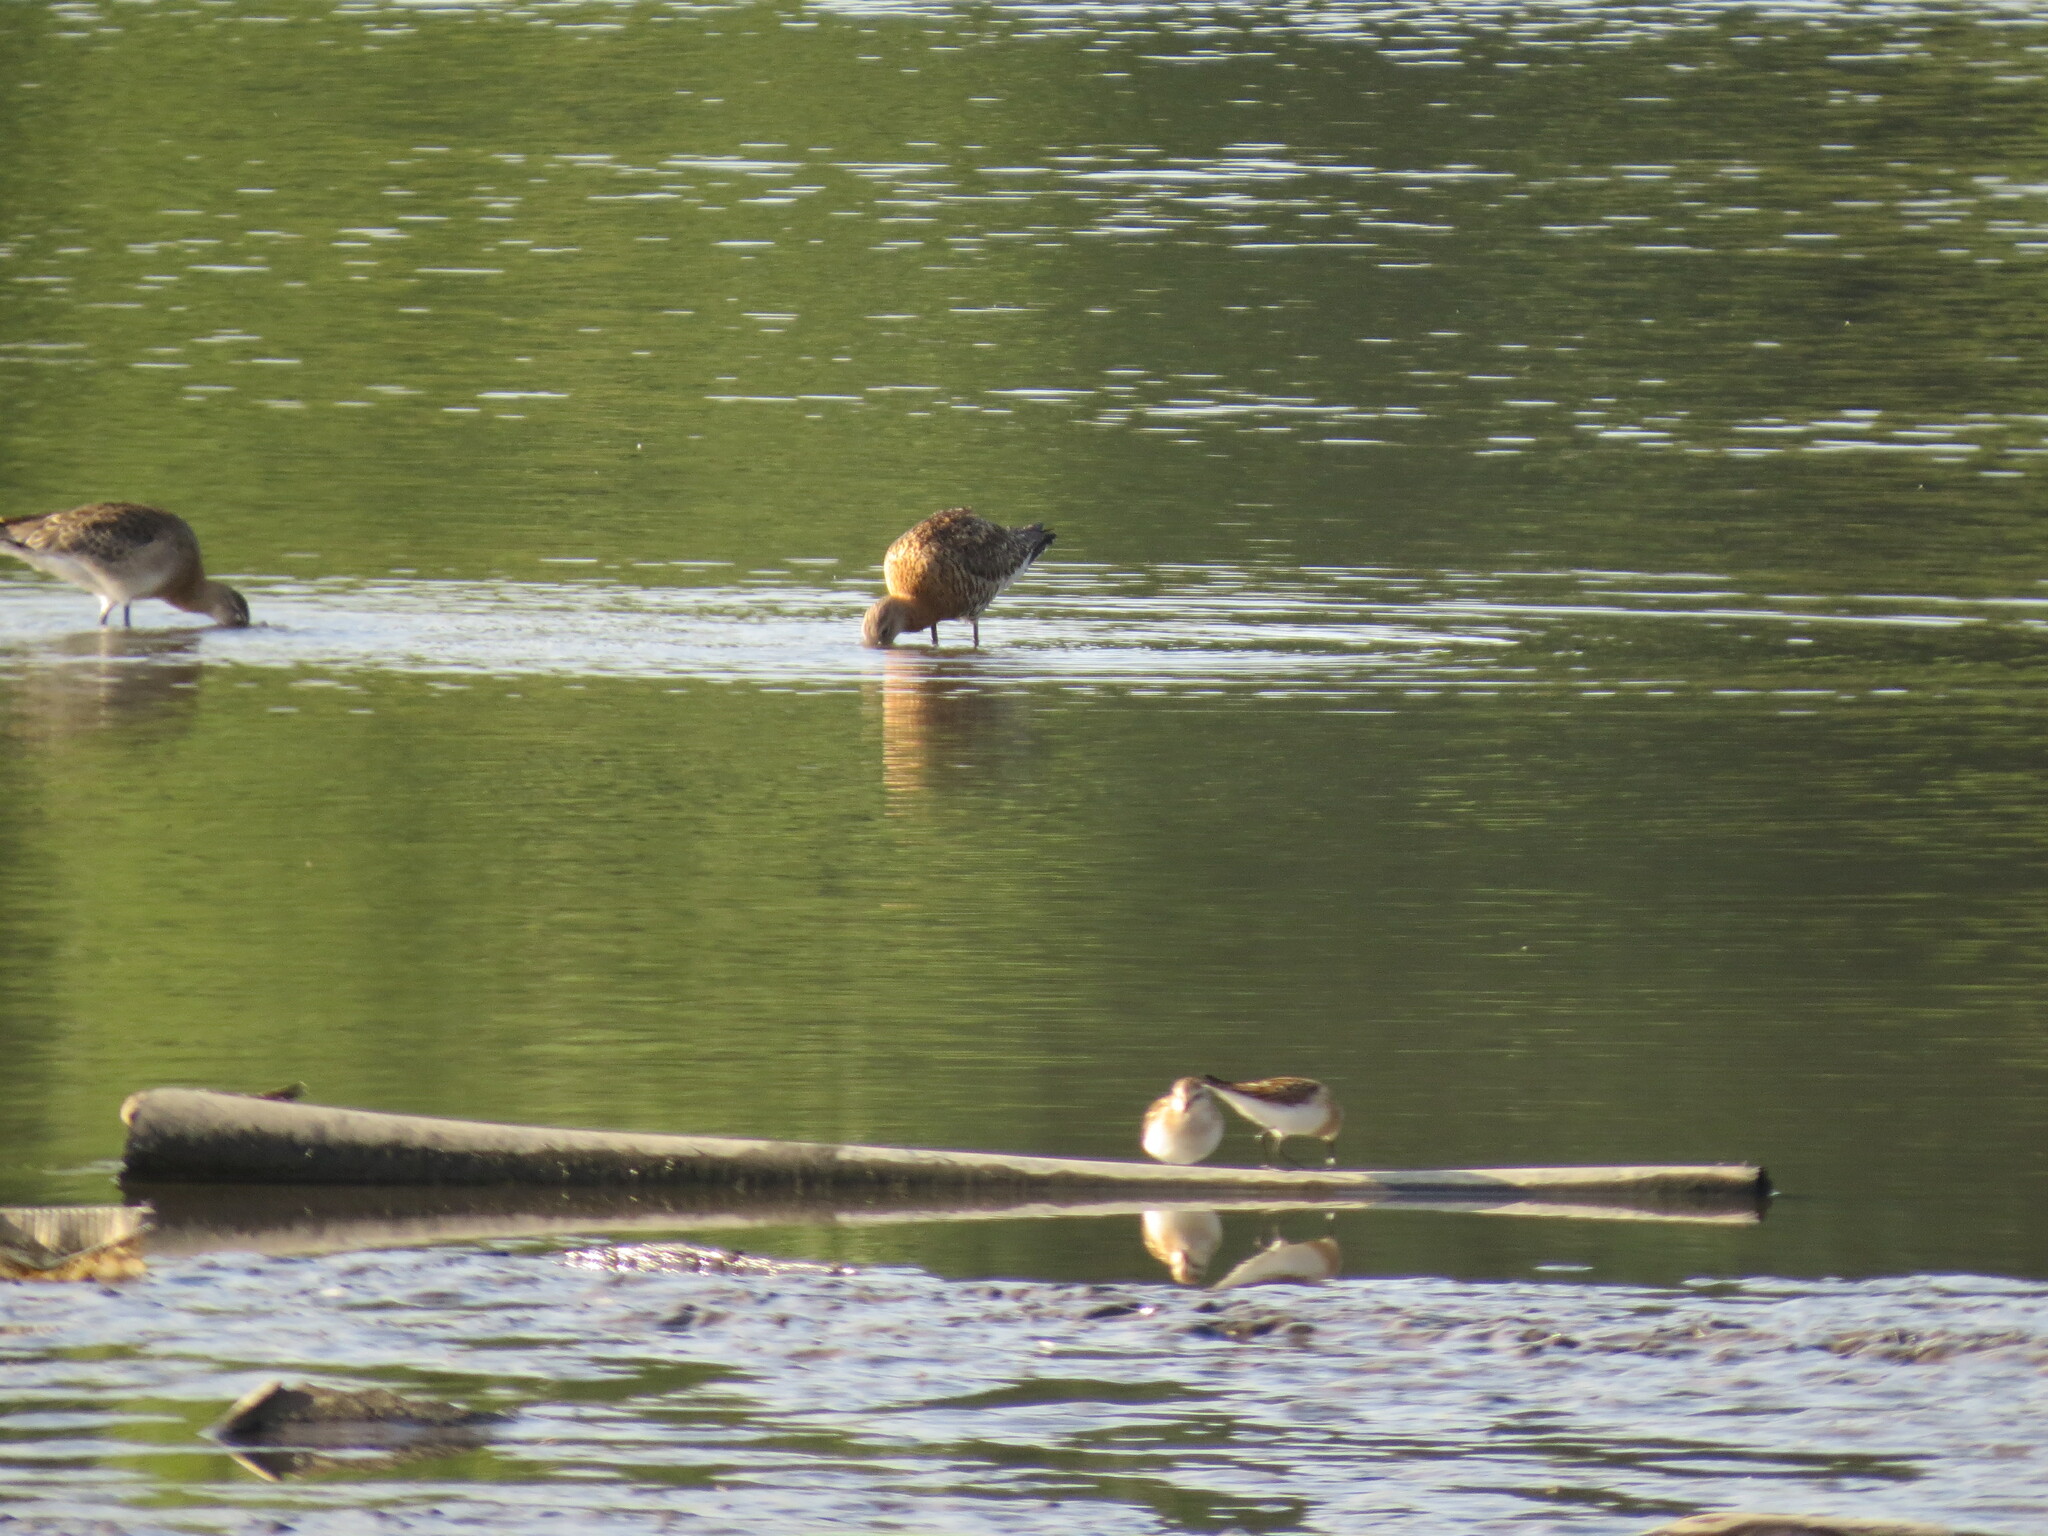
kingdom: Animalia
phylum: Chordata
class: Aves
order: Charadriiformes
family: Scolopacidae
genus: Limosa
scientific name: Limosa limosa
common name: Black-tailed godwit
